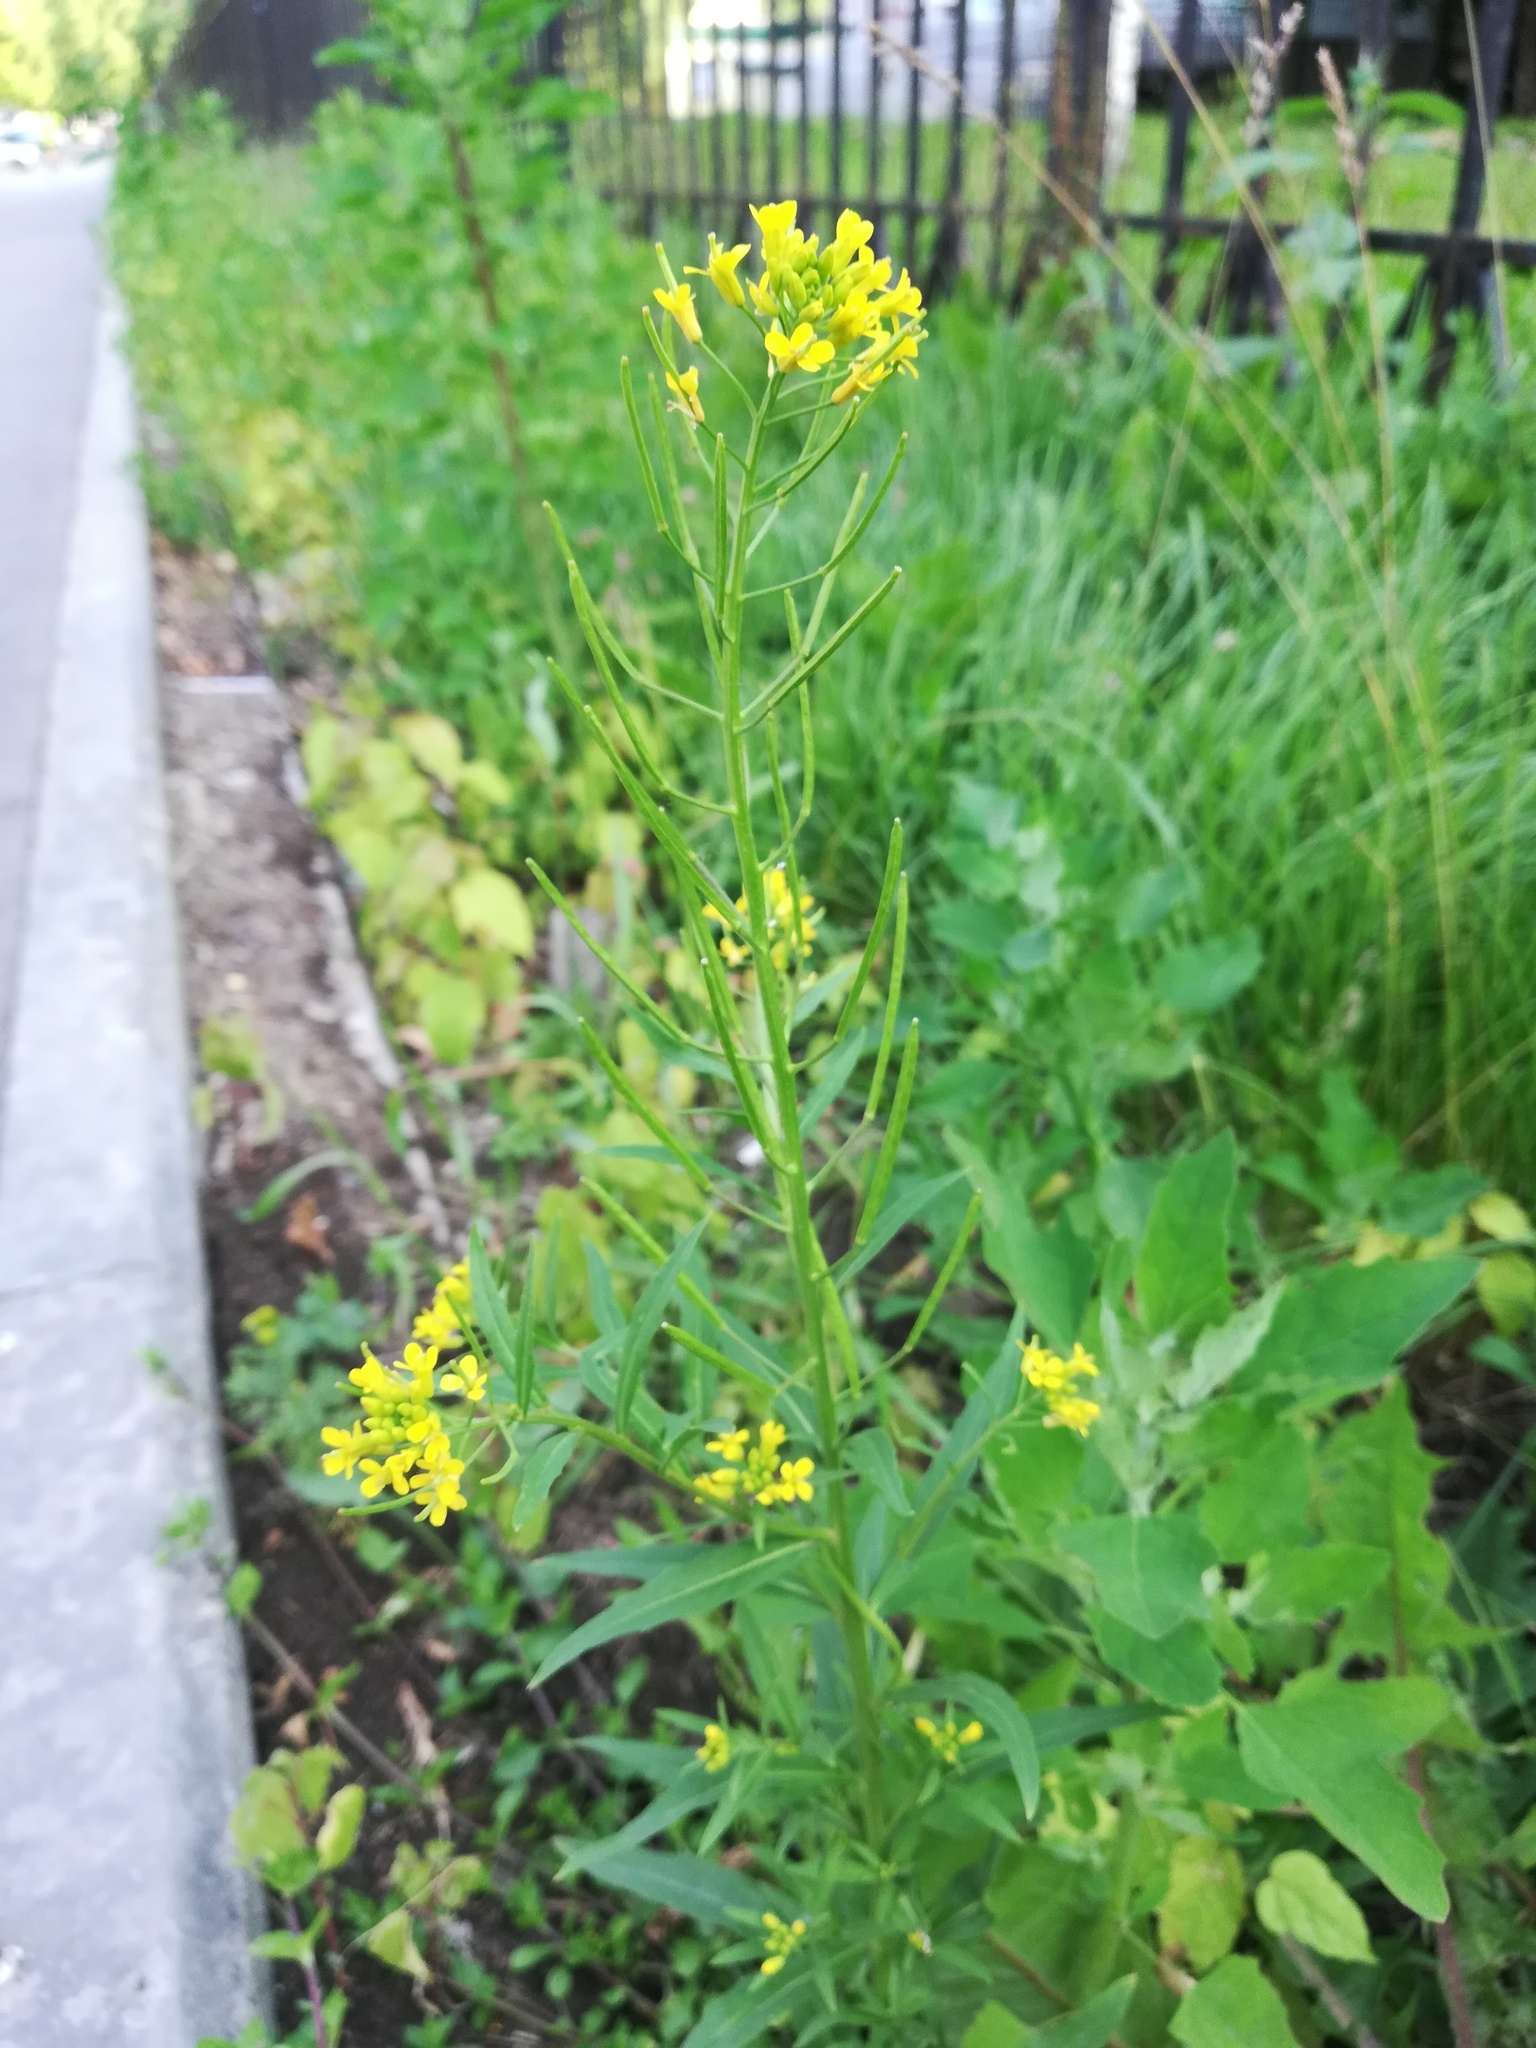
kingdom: Plantae
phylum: Tracheophyta
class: Magnoliopsida
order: Brassicales
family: Brassicaceae
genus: Erysimum
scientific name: Erysimum cheiranthoides
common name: Treacle mustard
